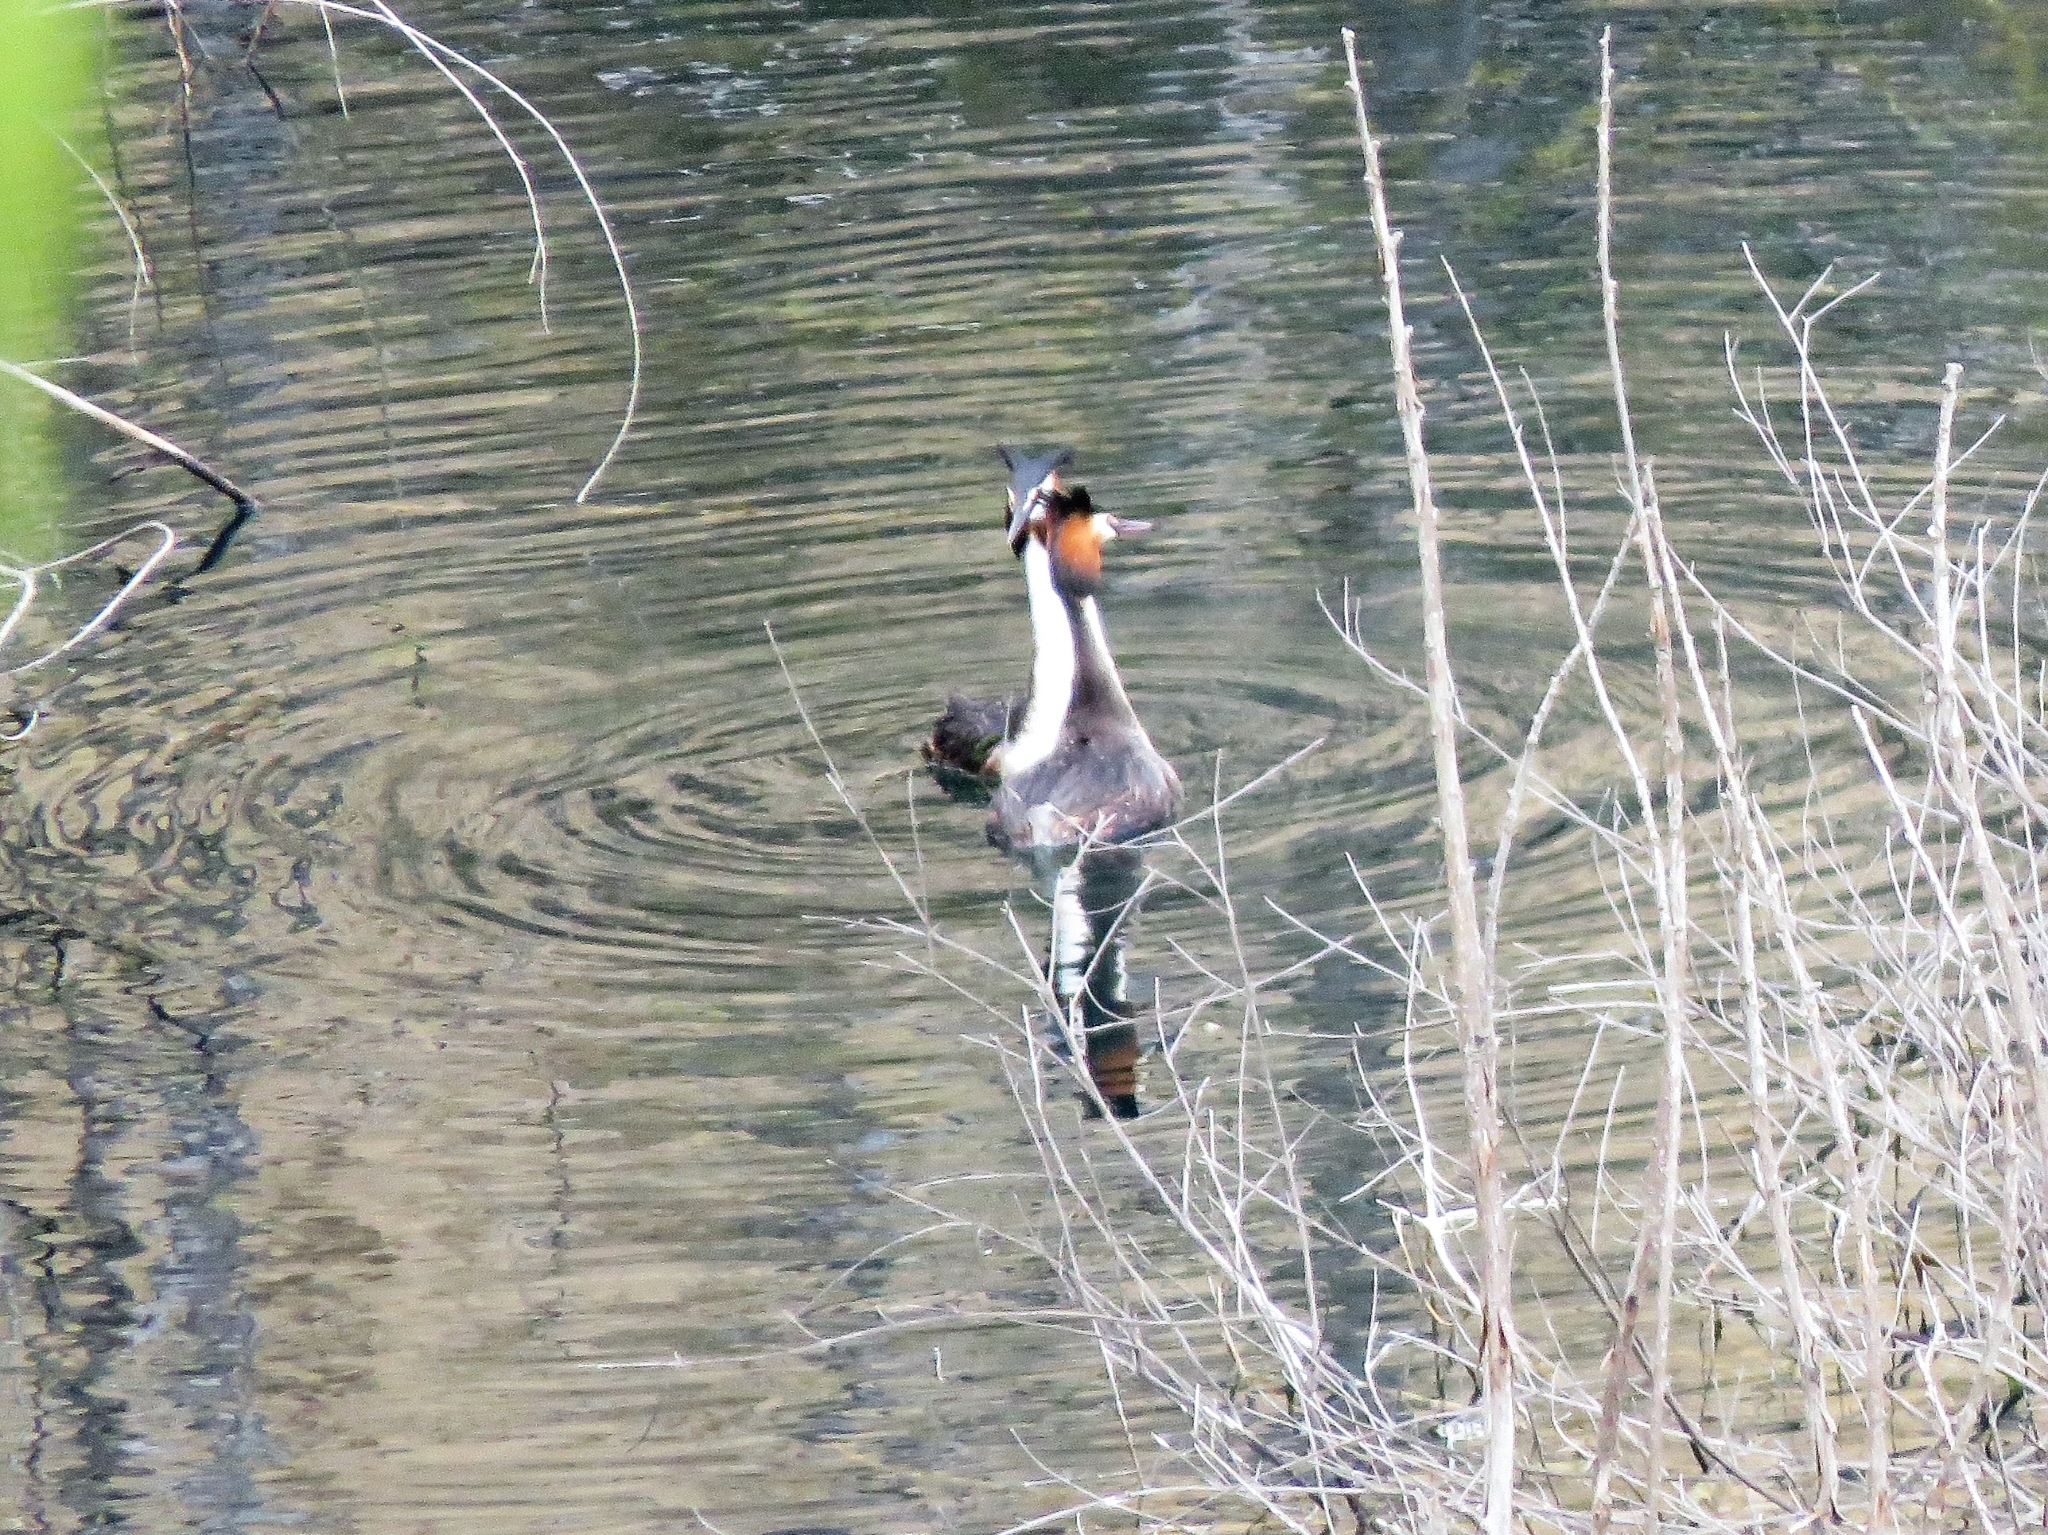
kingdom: Animalia
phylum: Chordata
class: Aves
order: Podicipediformes
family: Podicipedidae
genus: Podiceps
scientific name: Podiceps cristatus
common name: Great crested grebe
